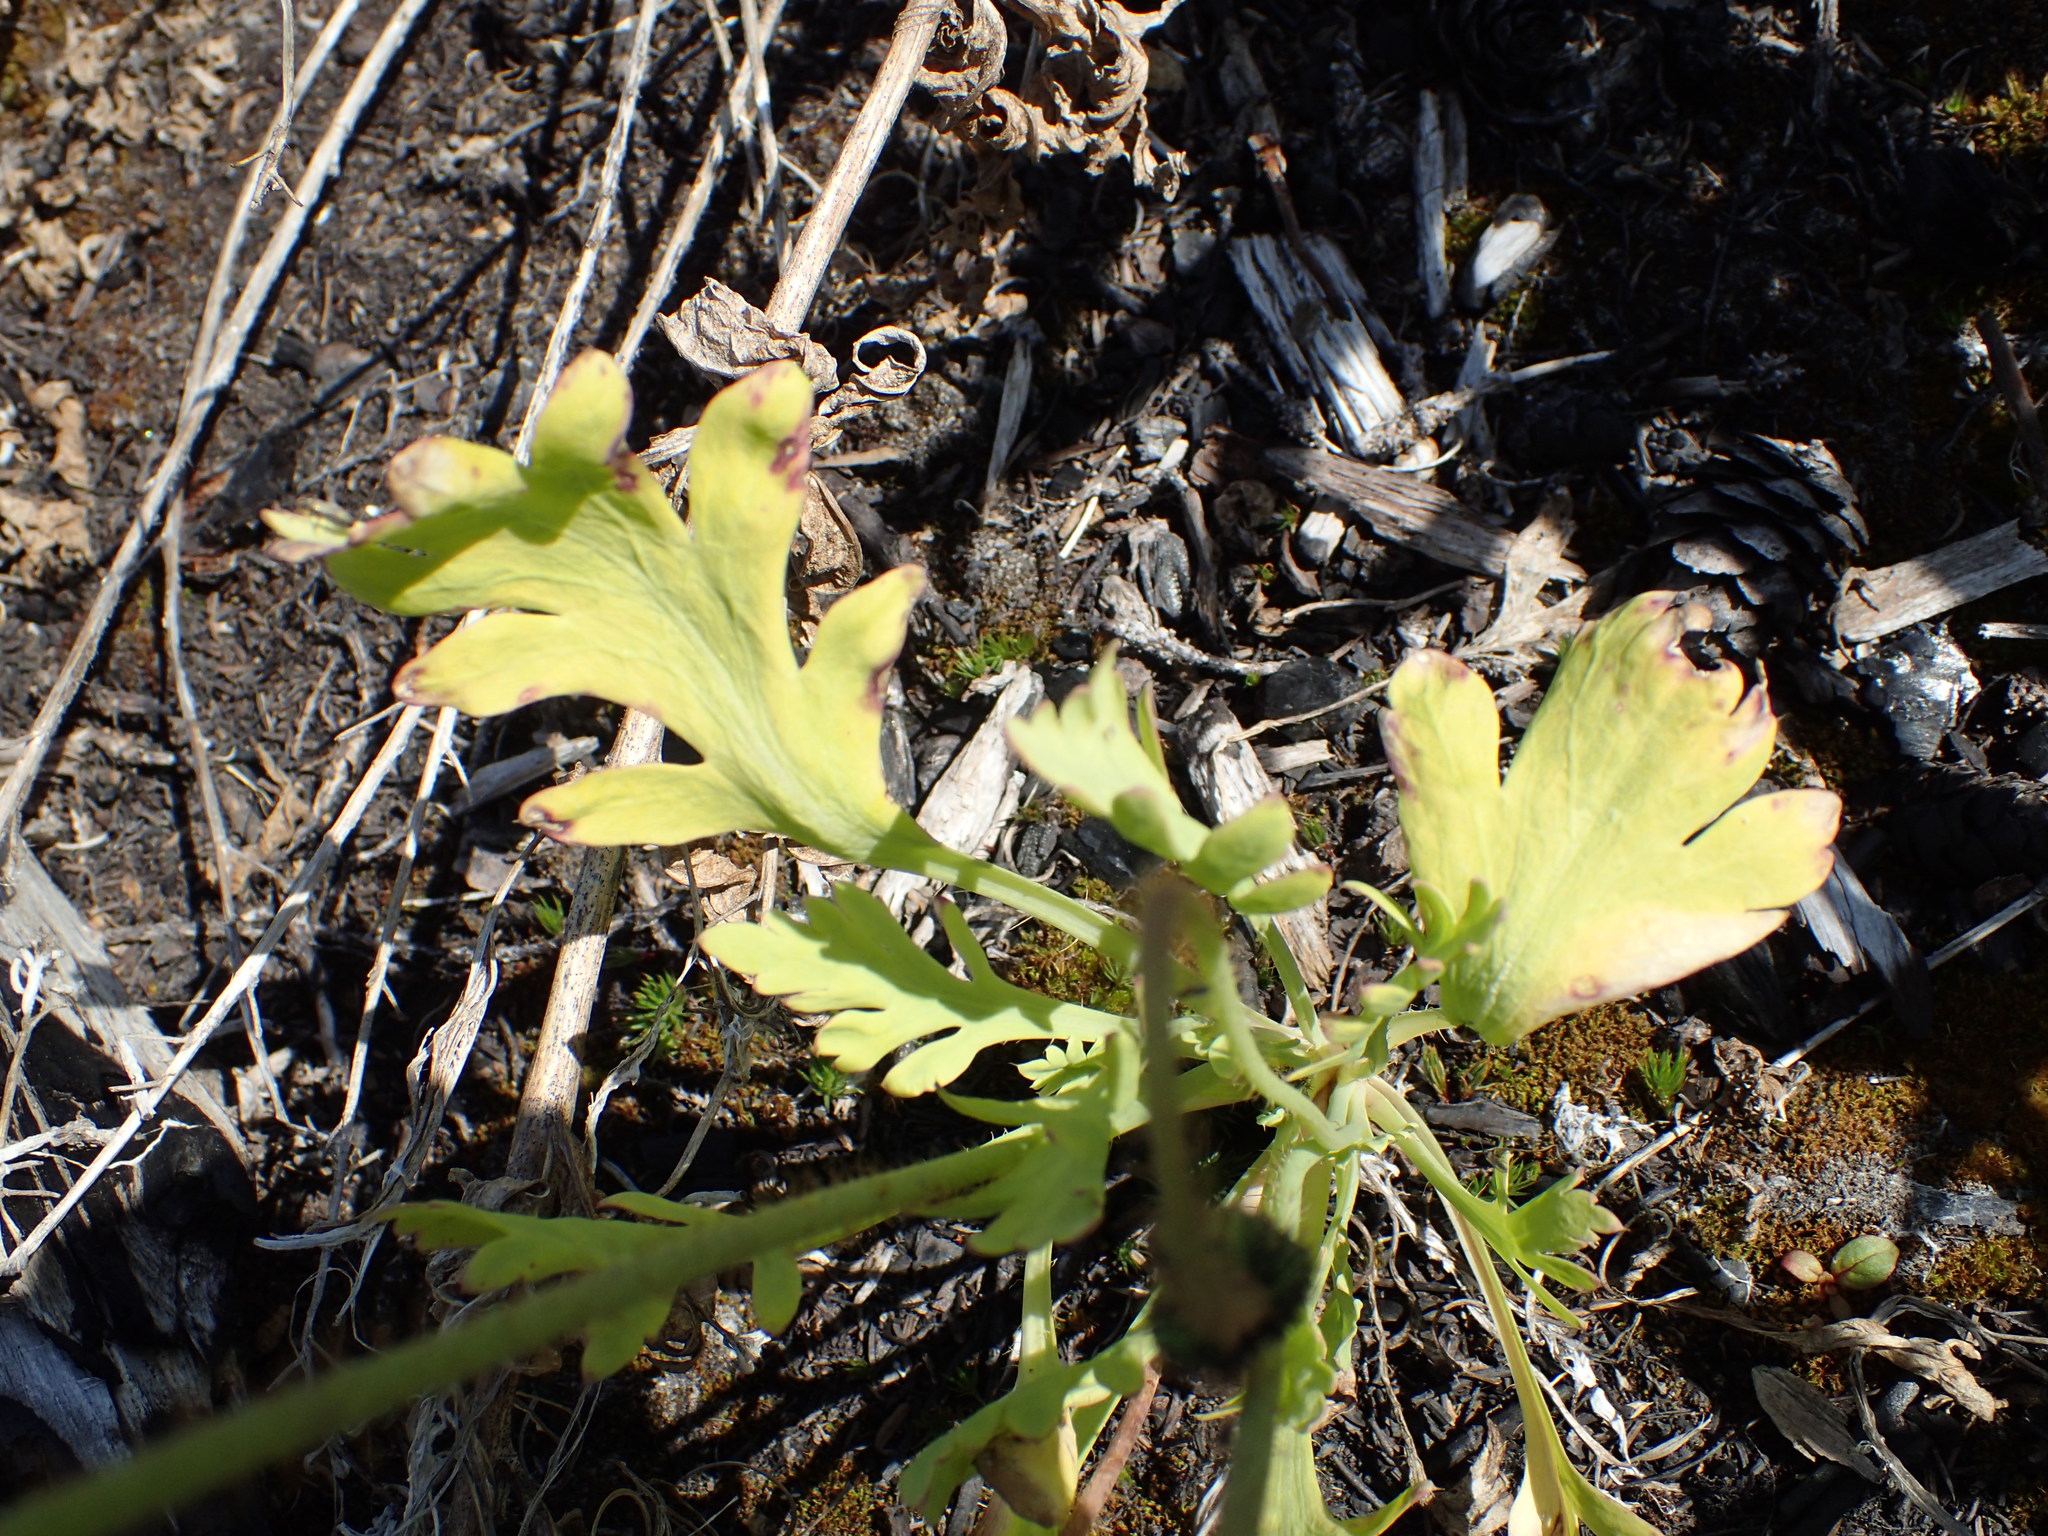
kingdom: Plantae
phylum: Tracheophyta
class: Magnoliopsida
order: Ranunculales
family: Papaveraceae
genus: Papaver
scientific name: Papaver nudicaule
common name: Arctic poppy
